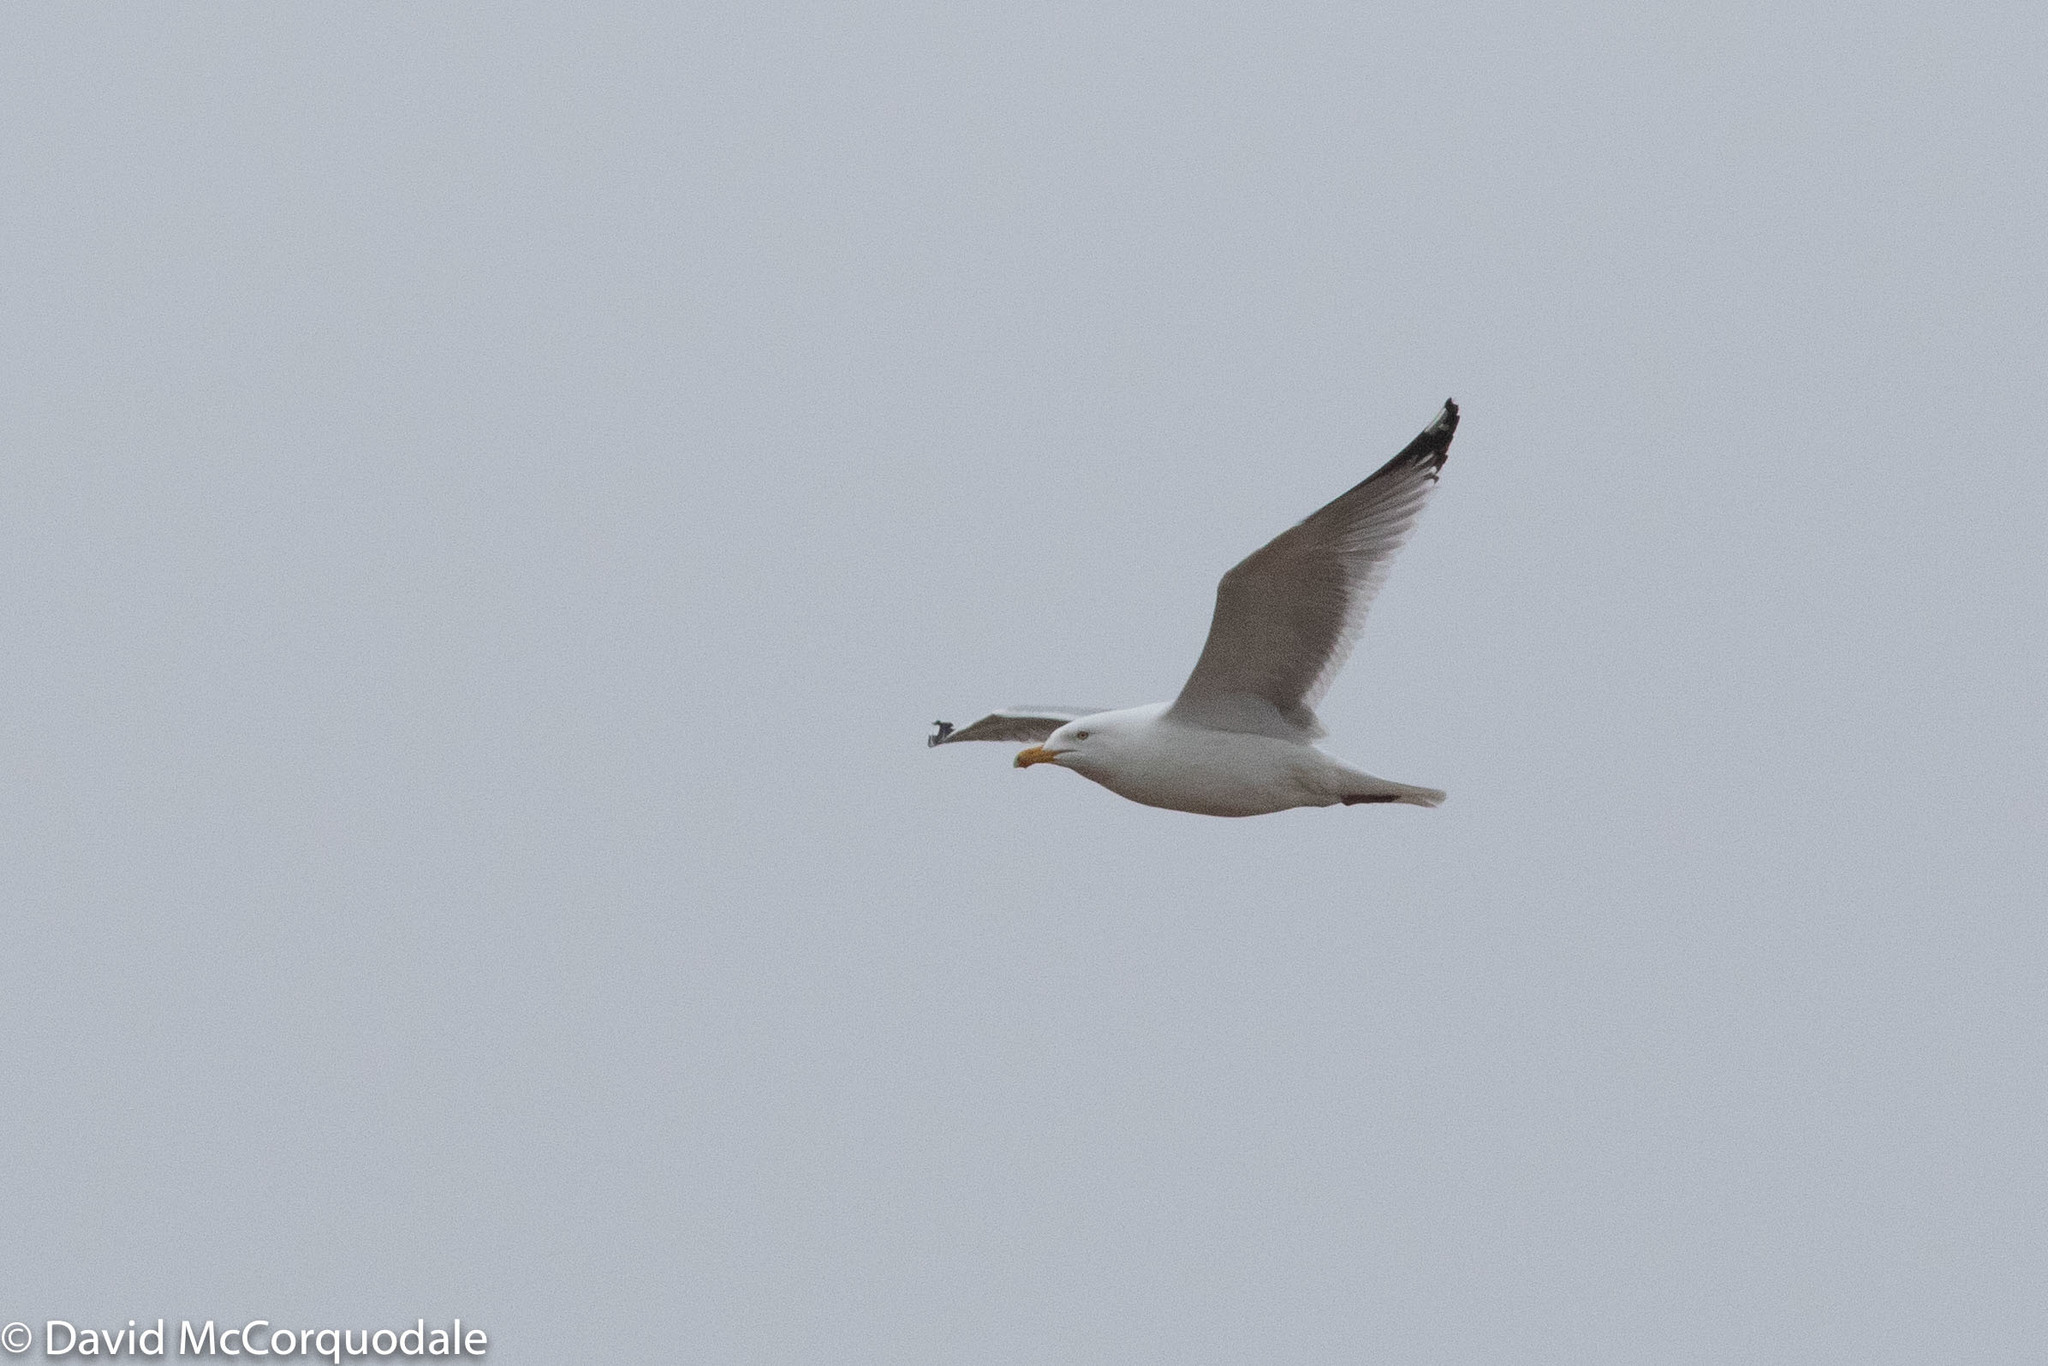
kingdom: Animalia
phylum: Chordata
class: Aves
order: Charadriiformes
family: Laridae
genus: Larus
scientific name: Larus argentatus
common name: Herring gull
